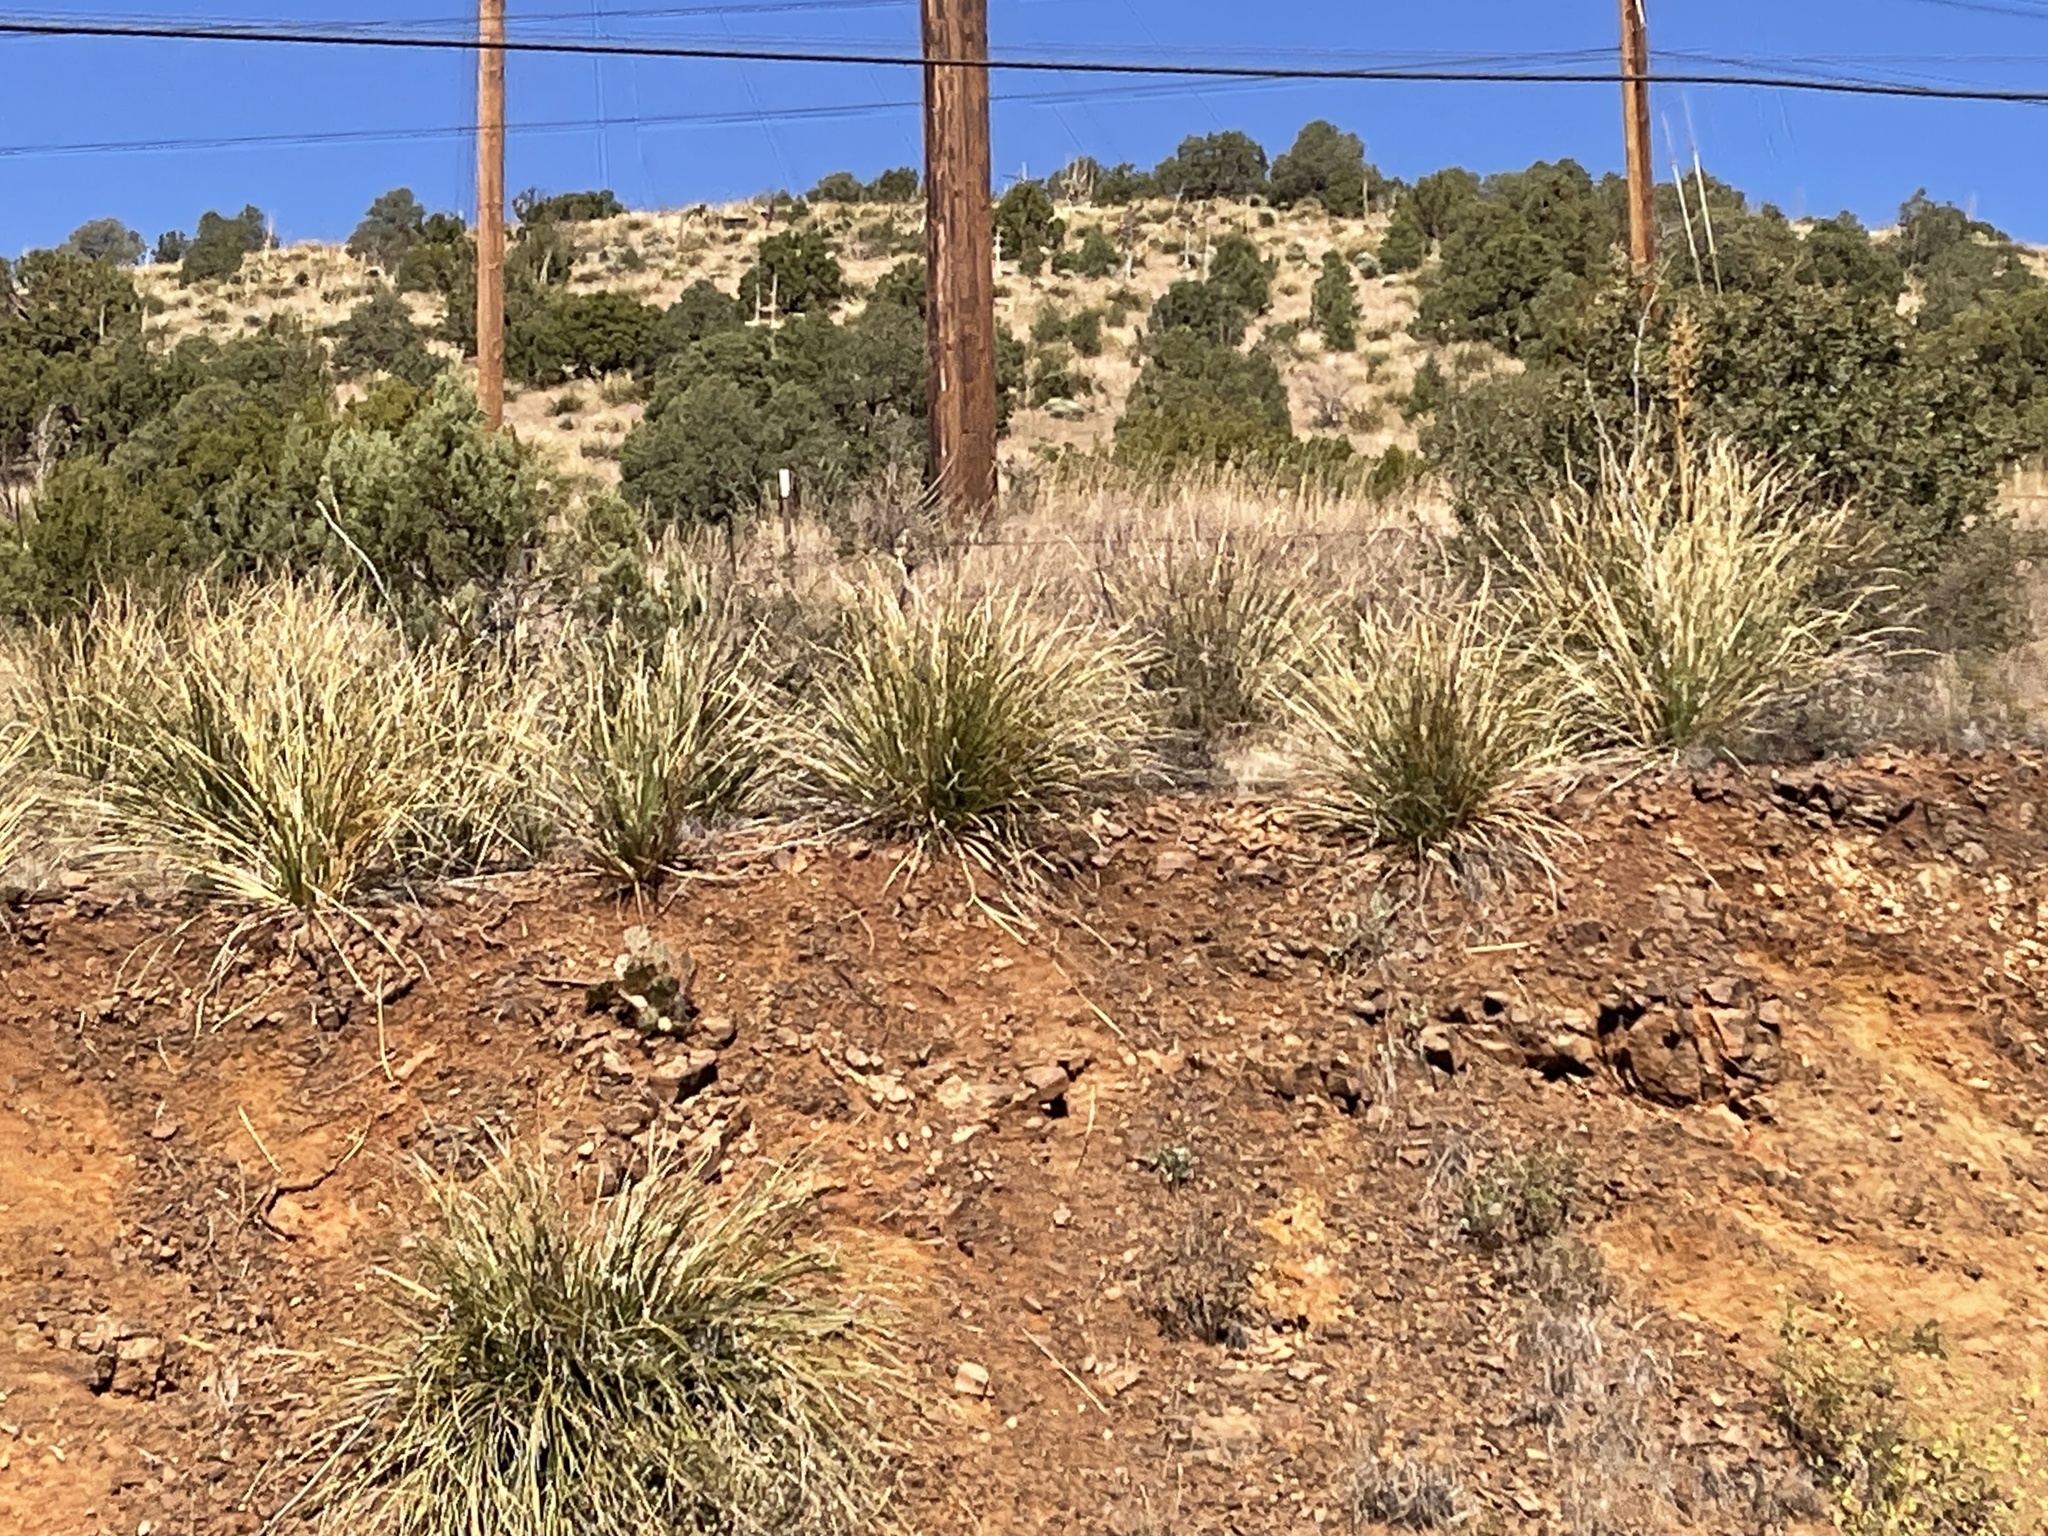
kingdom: Plantae
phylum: Tracheophyta
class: Liliopsida
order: Asparagales
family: Asparagaceae
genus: Nolina
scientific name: Nolina microcarpa
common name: Bear-grass
